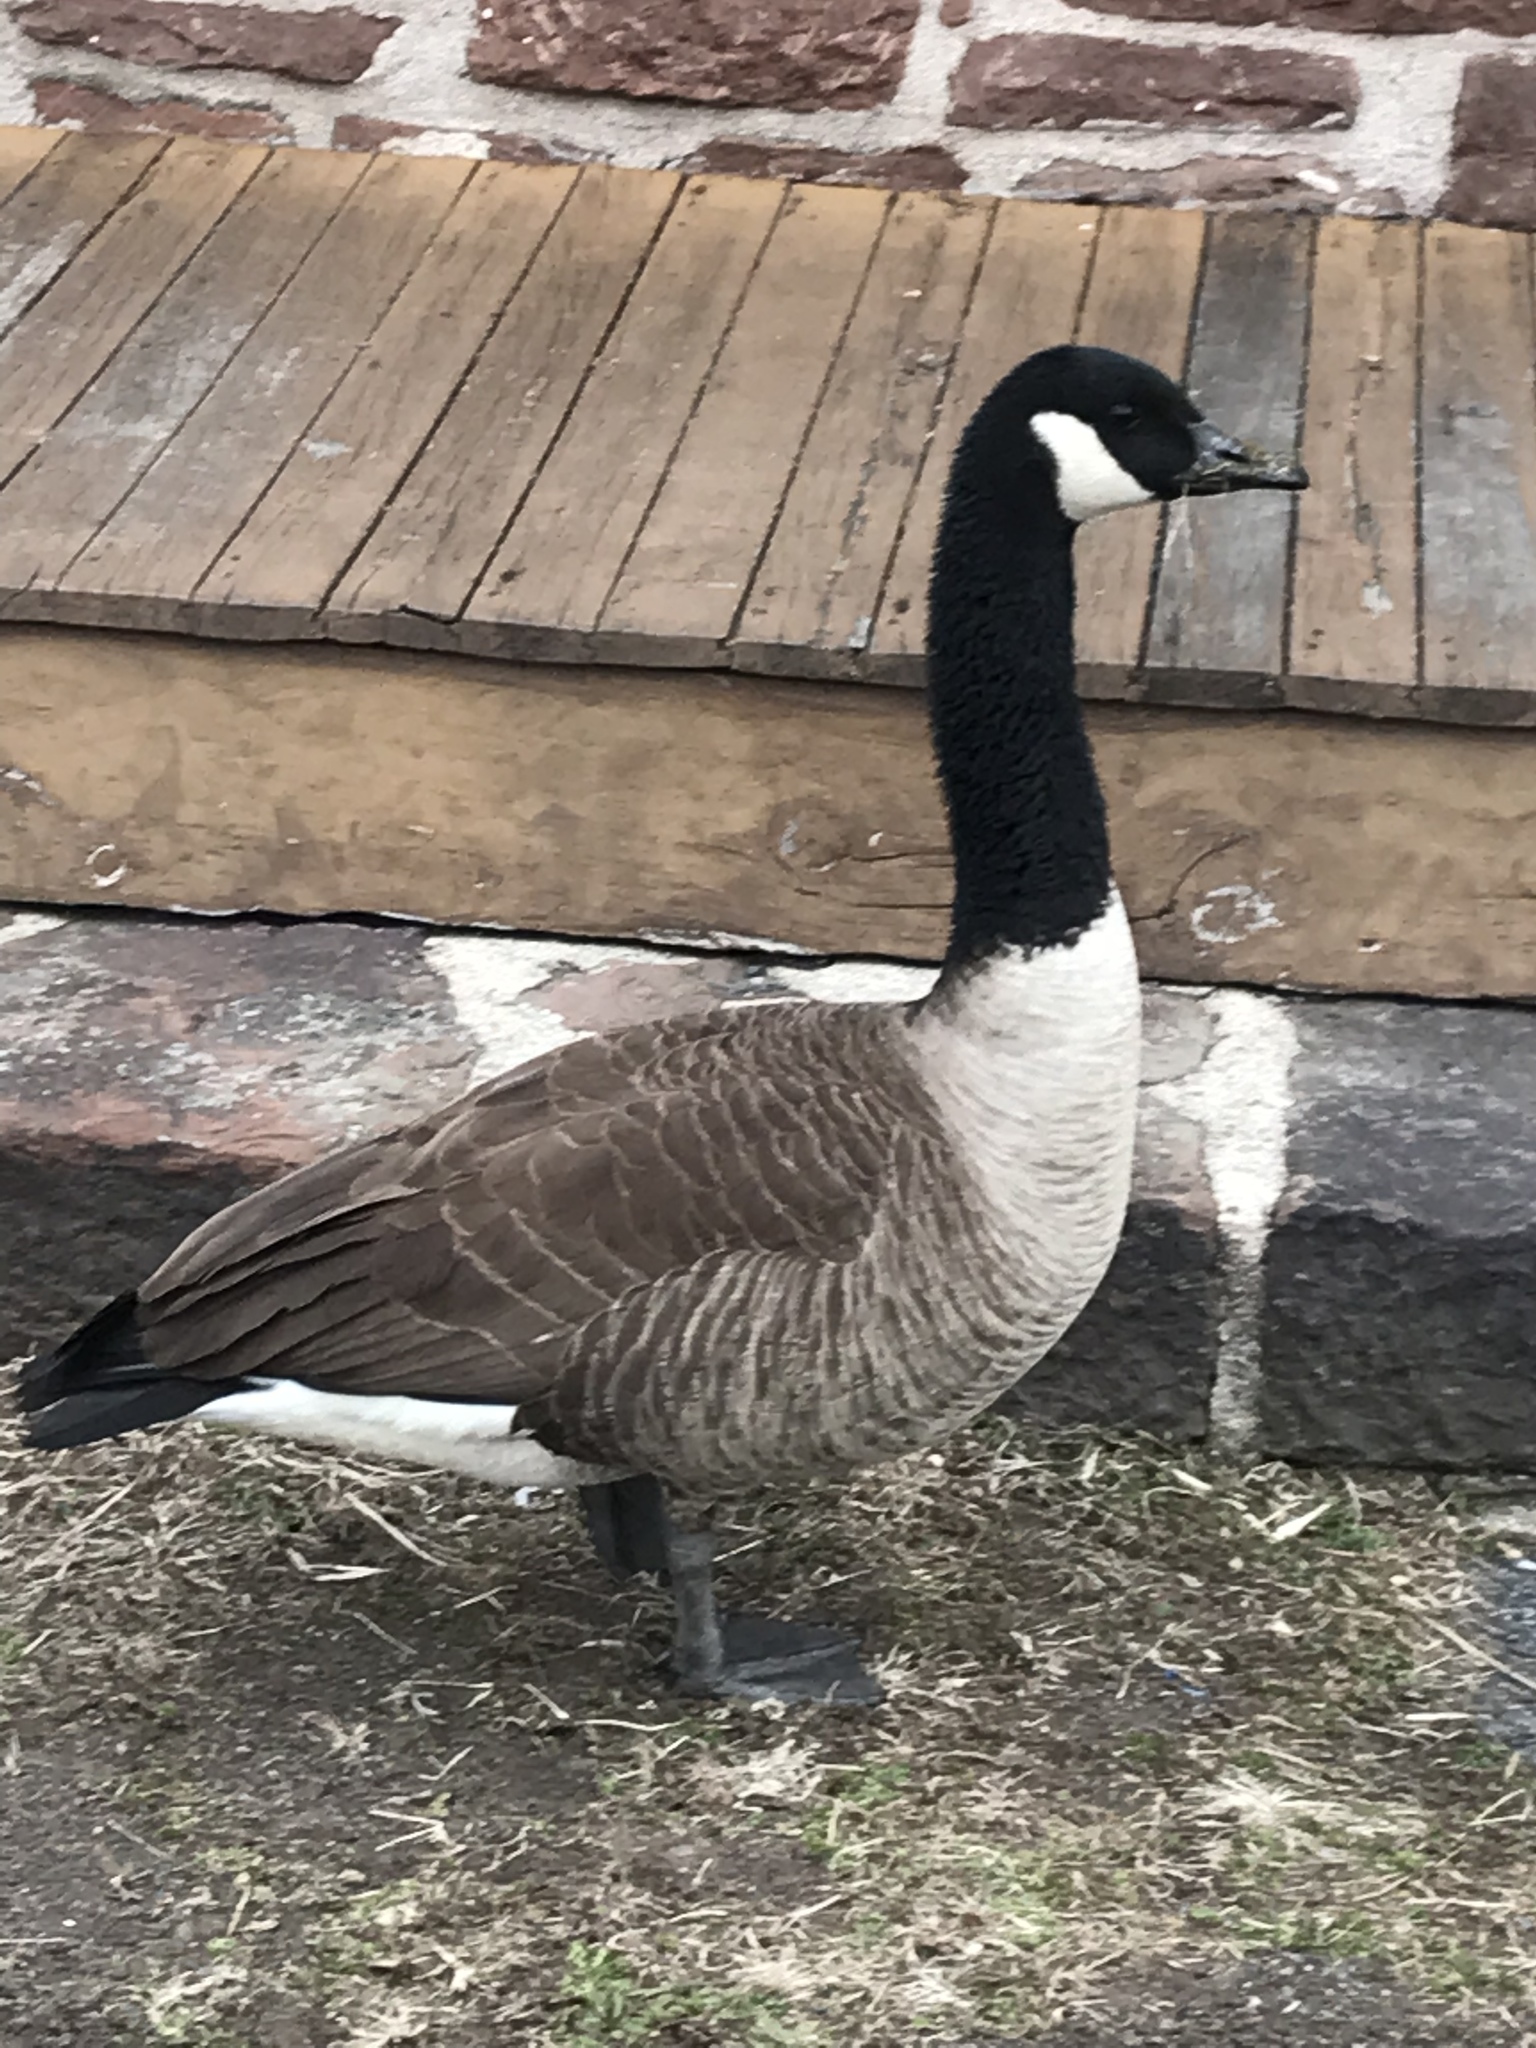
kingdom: Animalia
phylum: Chordata
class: Aves
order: Anseriformes
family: Anatidae
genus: Branta
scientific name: Branta canadensis
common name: Canada goose
